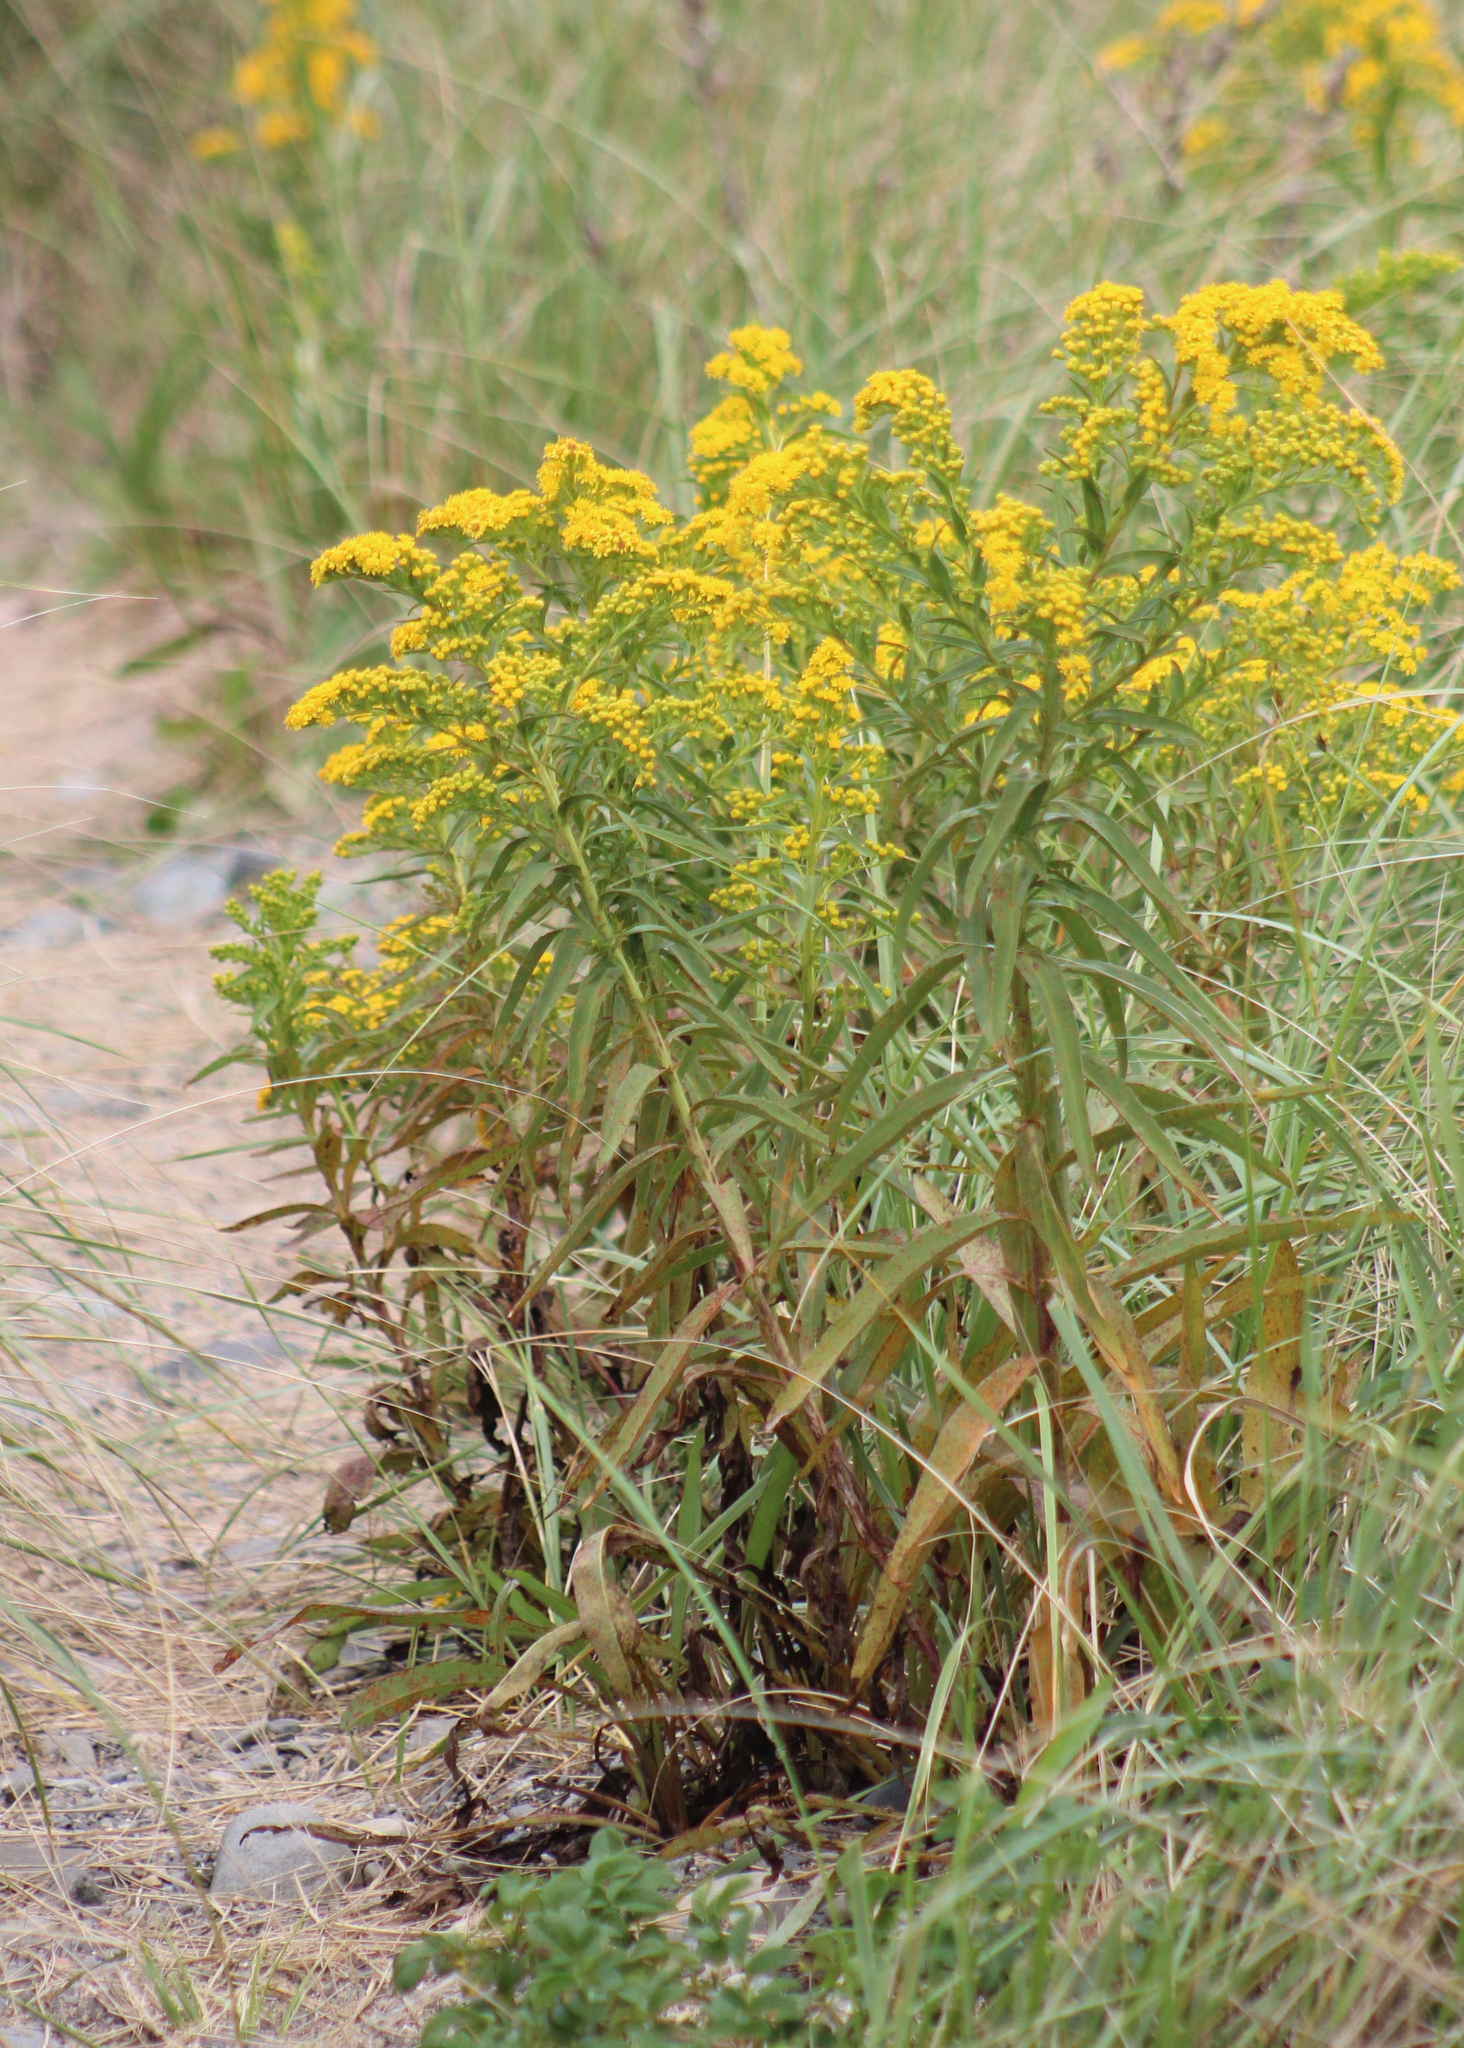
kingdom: Plantae
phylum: Tracheophyta
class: Magnoliopsida
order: Asterales
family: Asteraceae
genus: Solidago
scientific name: Solidago sempervirens
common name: Salt-marsh goldenrod
